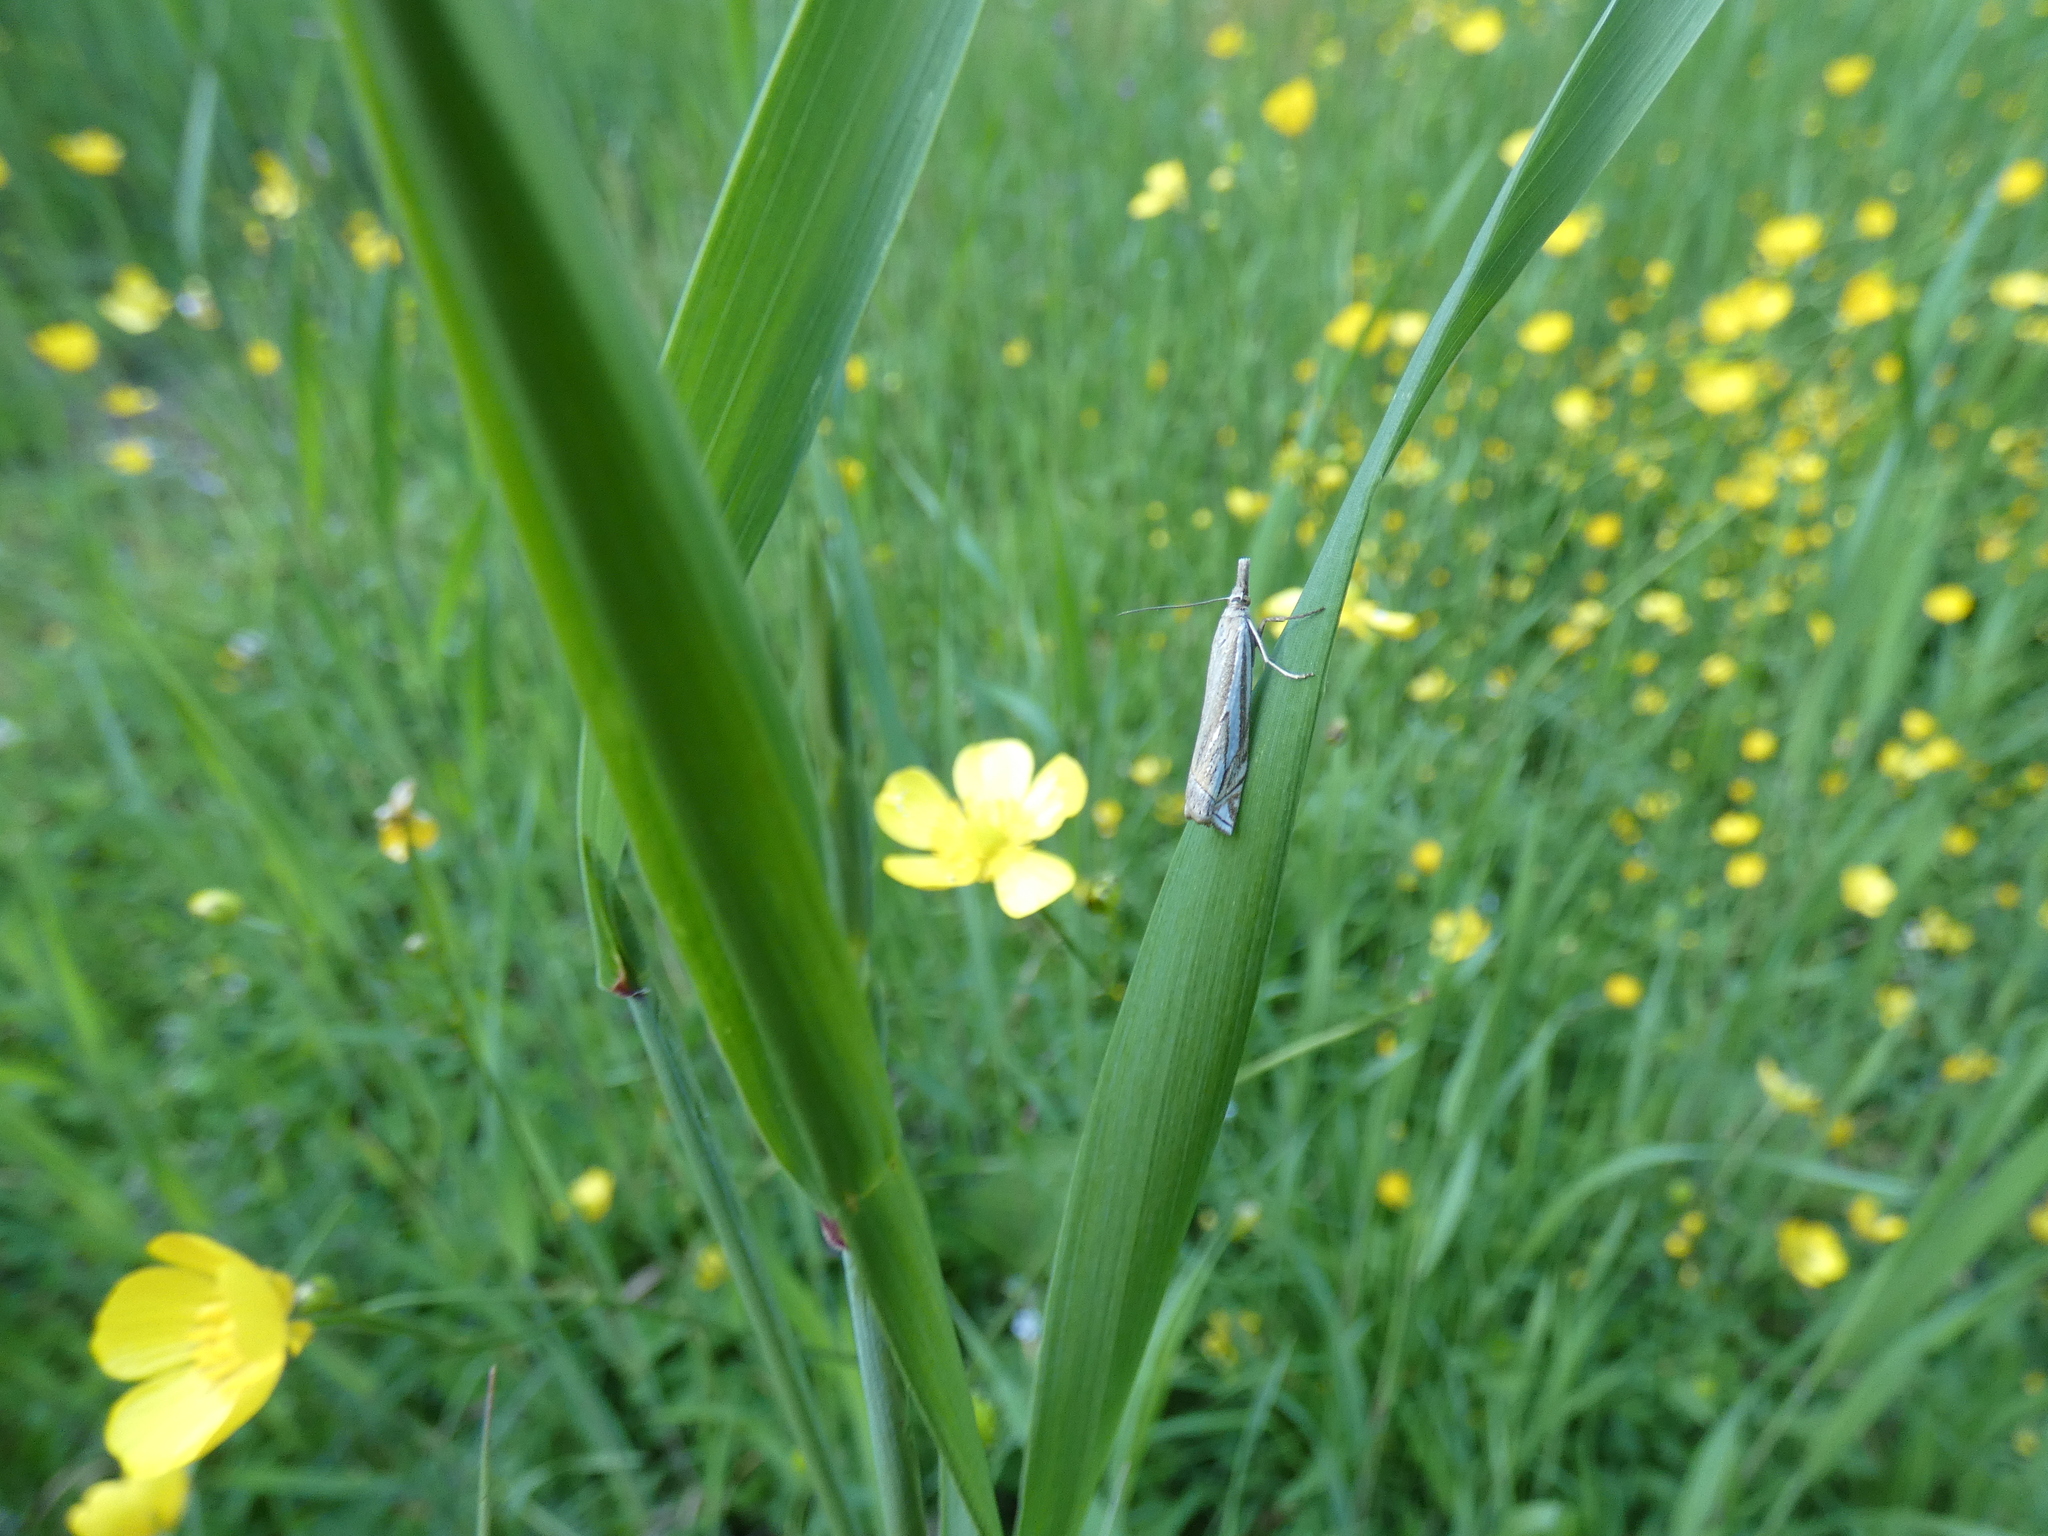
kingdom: Animalia
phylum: Arthropoda
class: Insecta
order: Lepidoptera
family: Crambidae
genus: Crambus
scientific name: Crambus pratella
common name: Scarce grass-veneer
